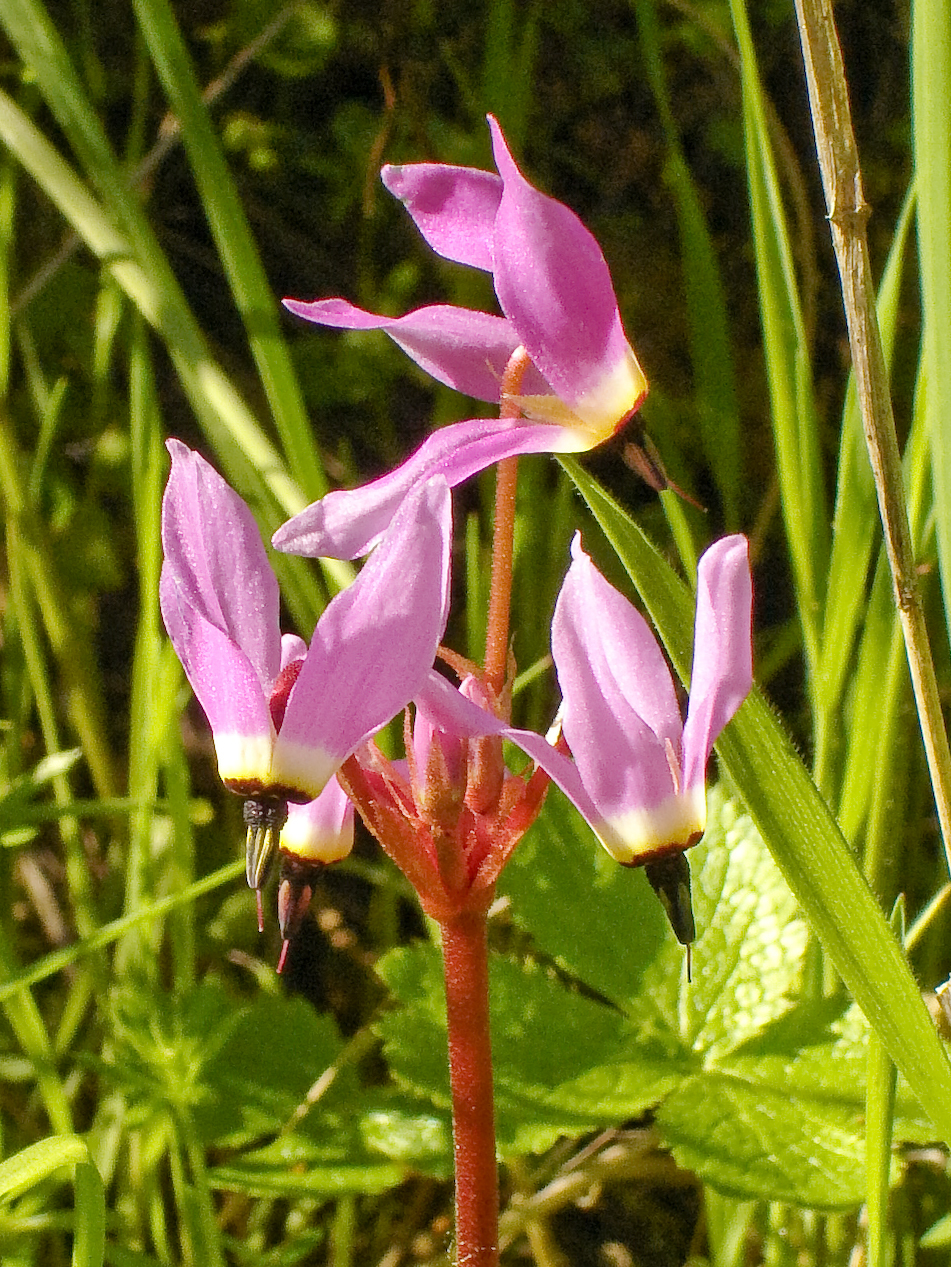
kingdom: Plantae
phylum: Tracheophyta
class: Magnoliopsida
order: Ericales
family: Primulaceae
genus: Dodecatheon
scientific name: Dodecatheon hendersonii
